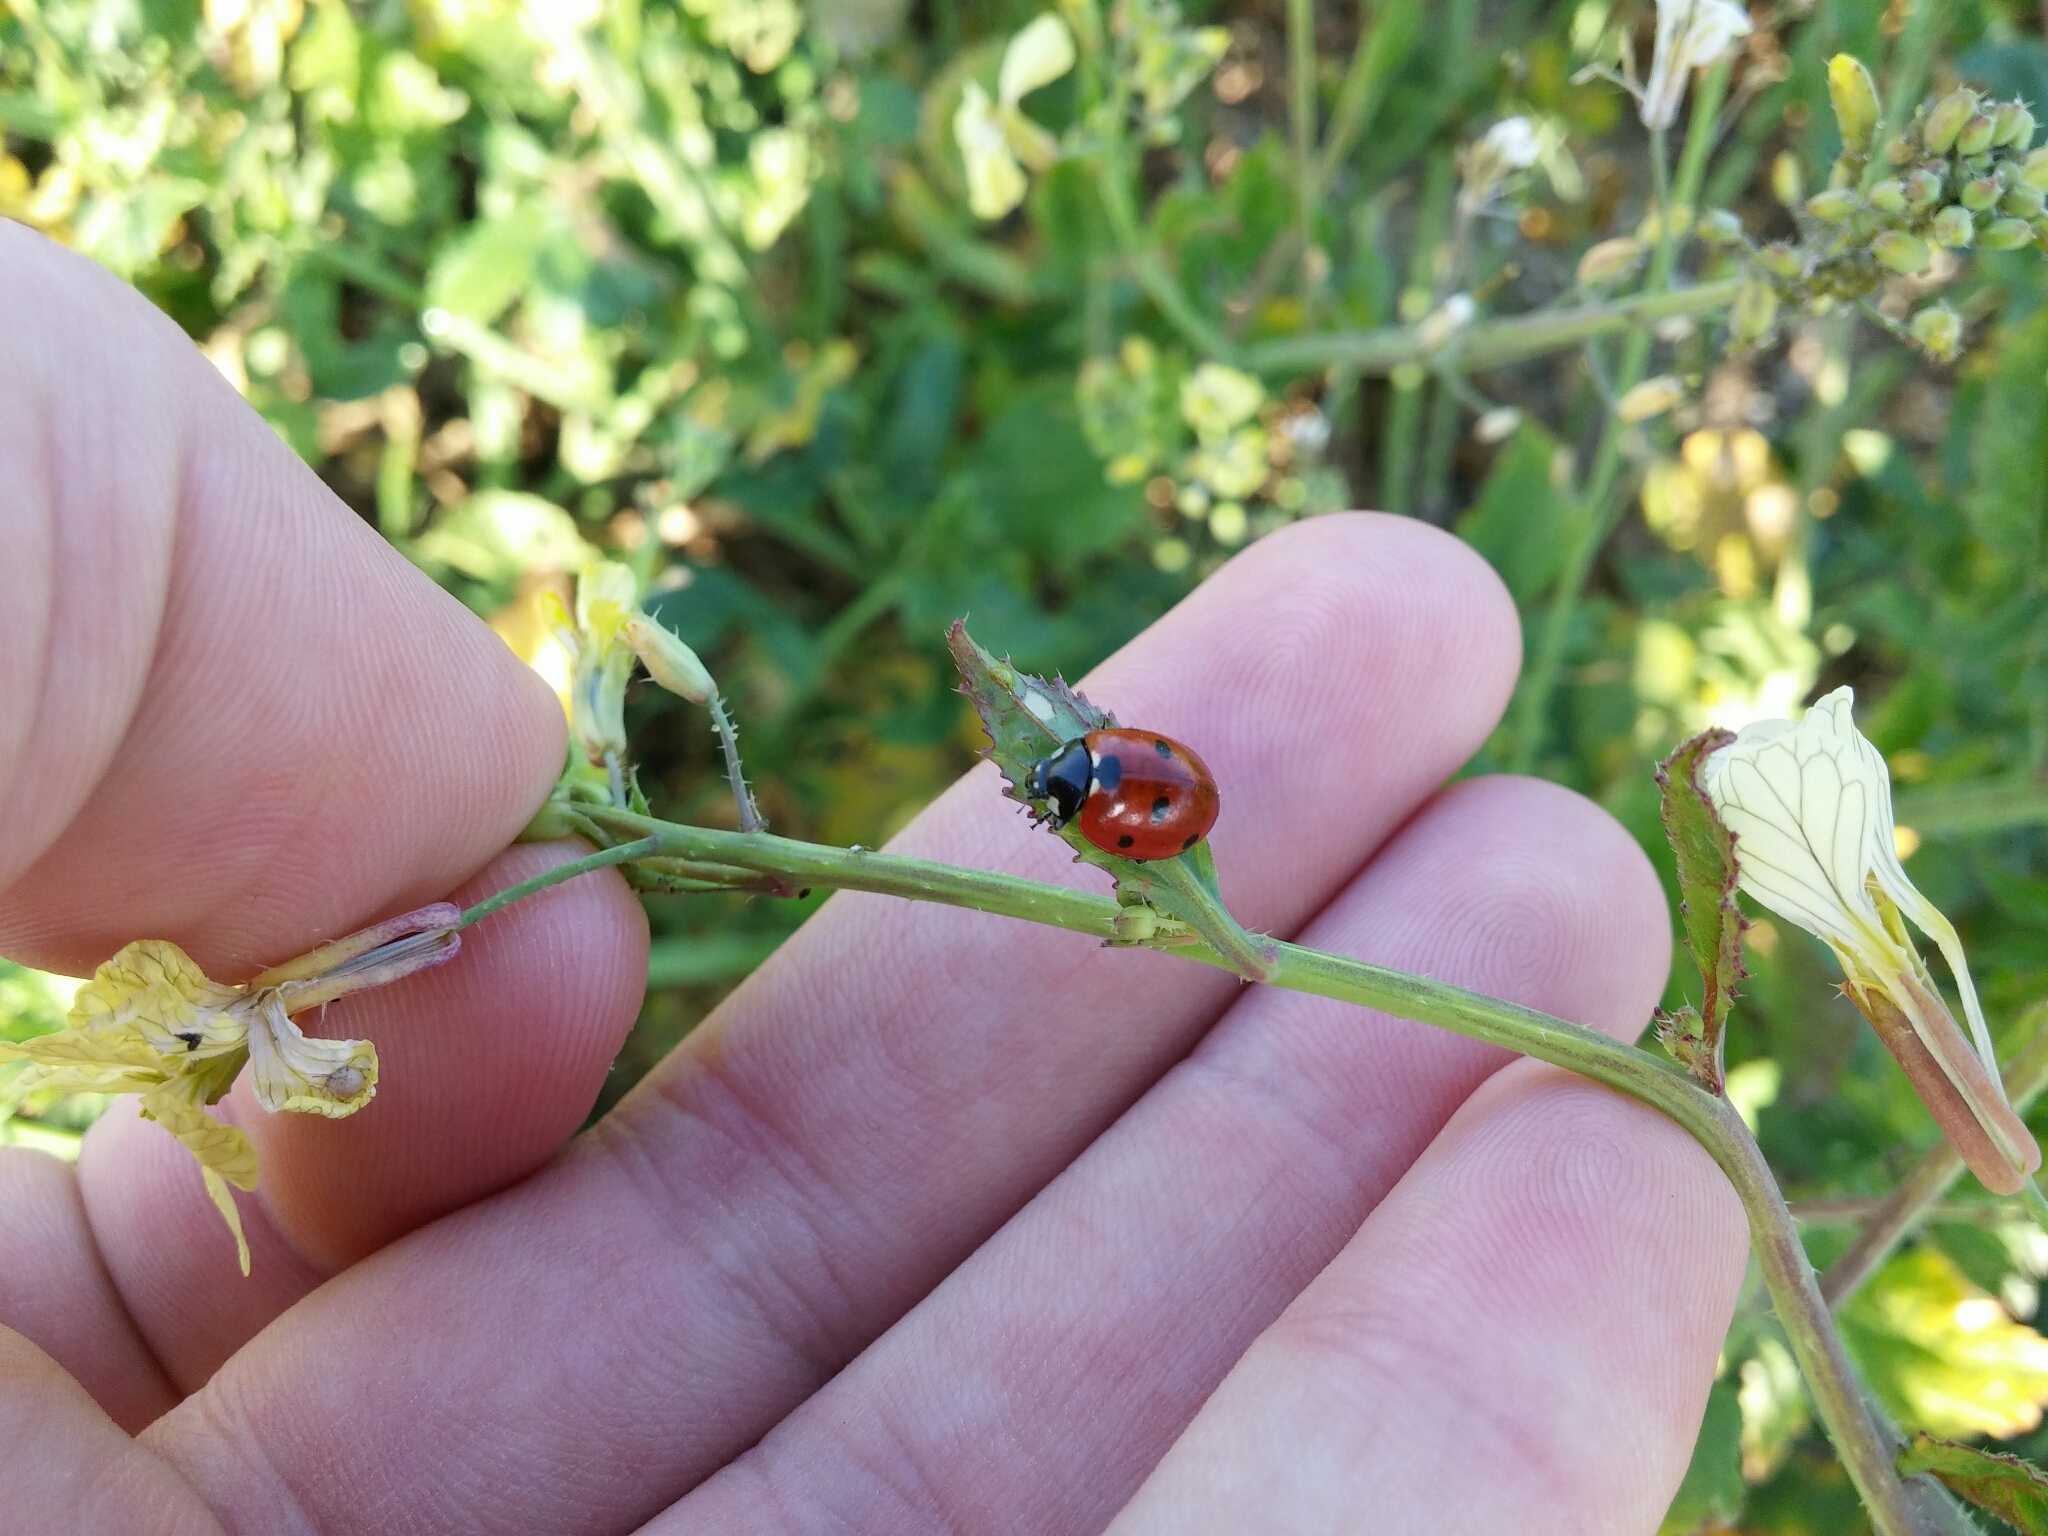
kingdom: Animalia
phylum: Arthropoda
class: Insecta
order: Coleoptera
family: Coccinellidae
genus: Coccinella
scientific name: Coccinella septempunctata
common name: Sevenspotted lady beetle
